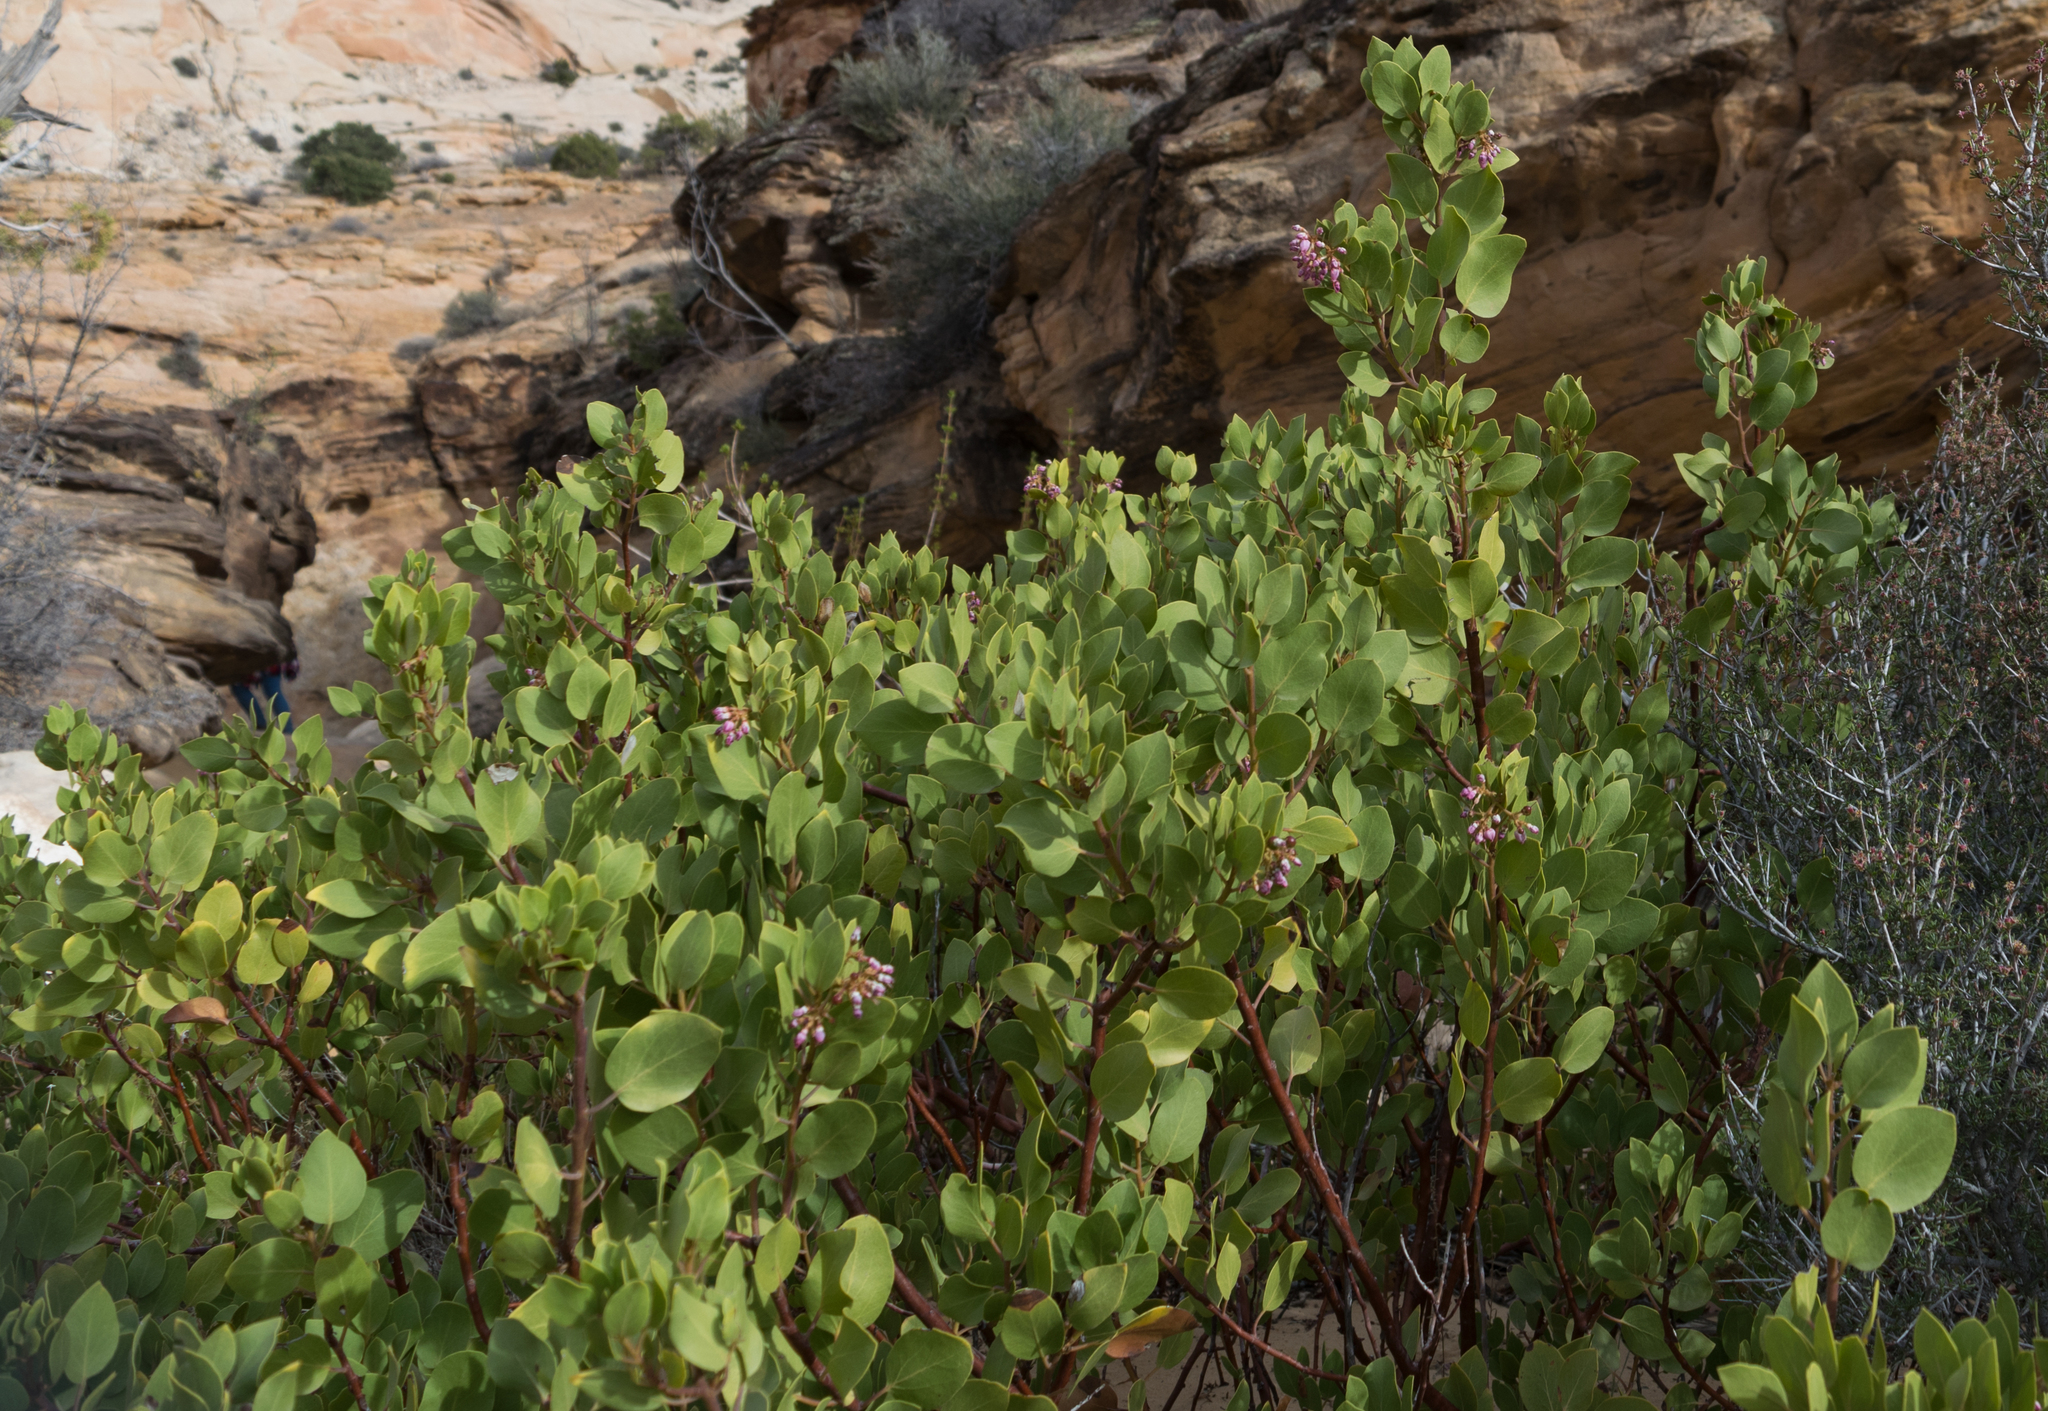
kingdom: Plantae
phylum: Tracheophyta
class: Magnoliopsida
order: Ericales
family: Ericaceae
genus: Arctostaphylos
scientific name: Arctostaphylos patula
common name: Green-leaf manzanita
